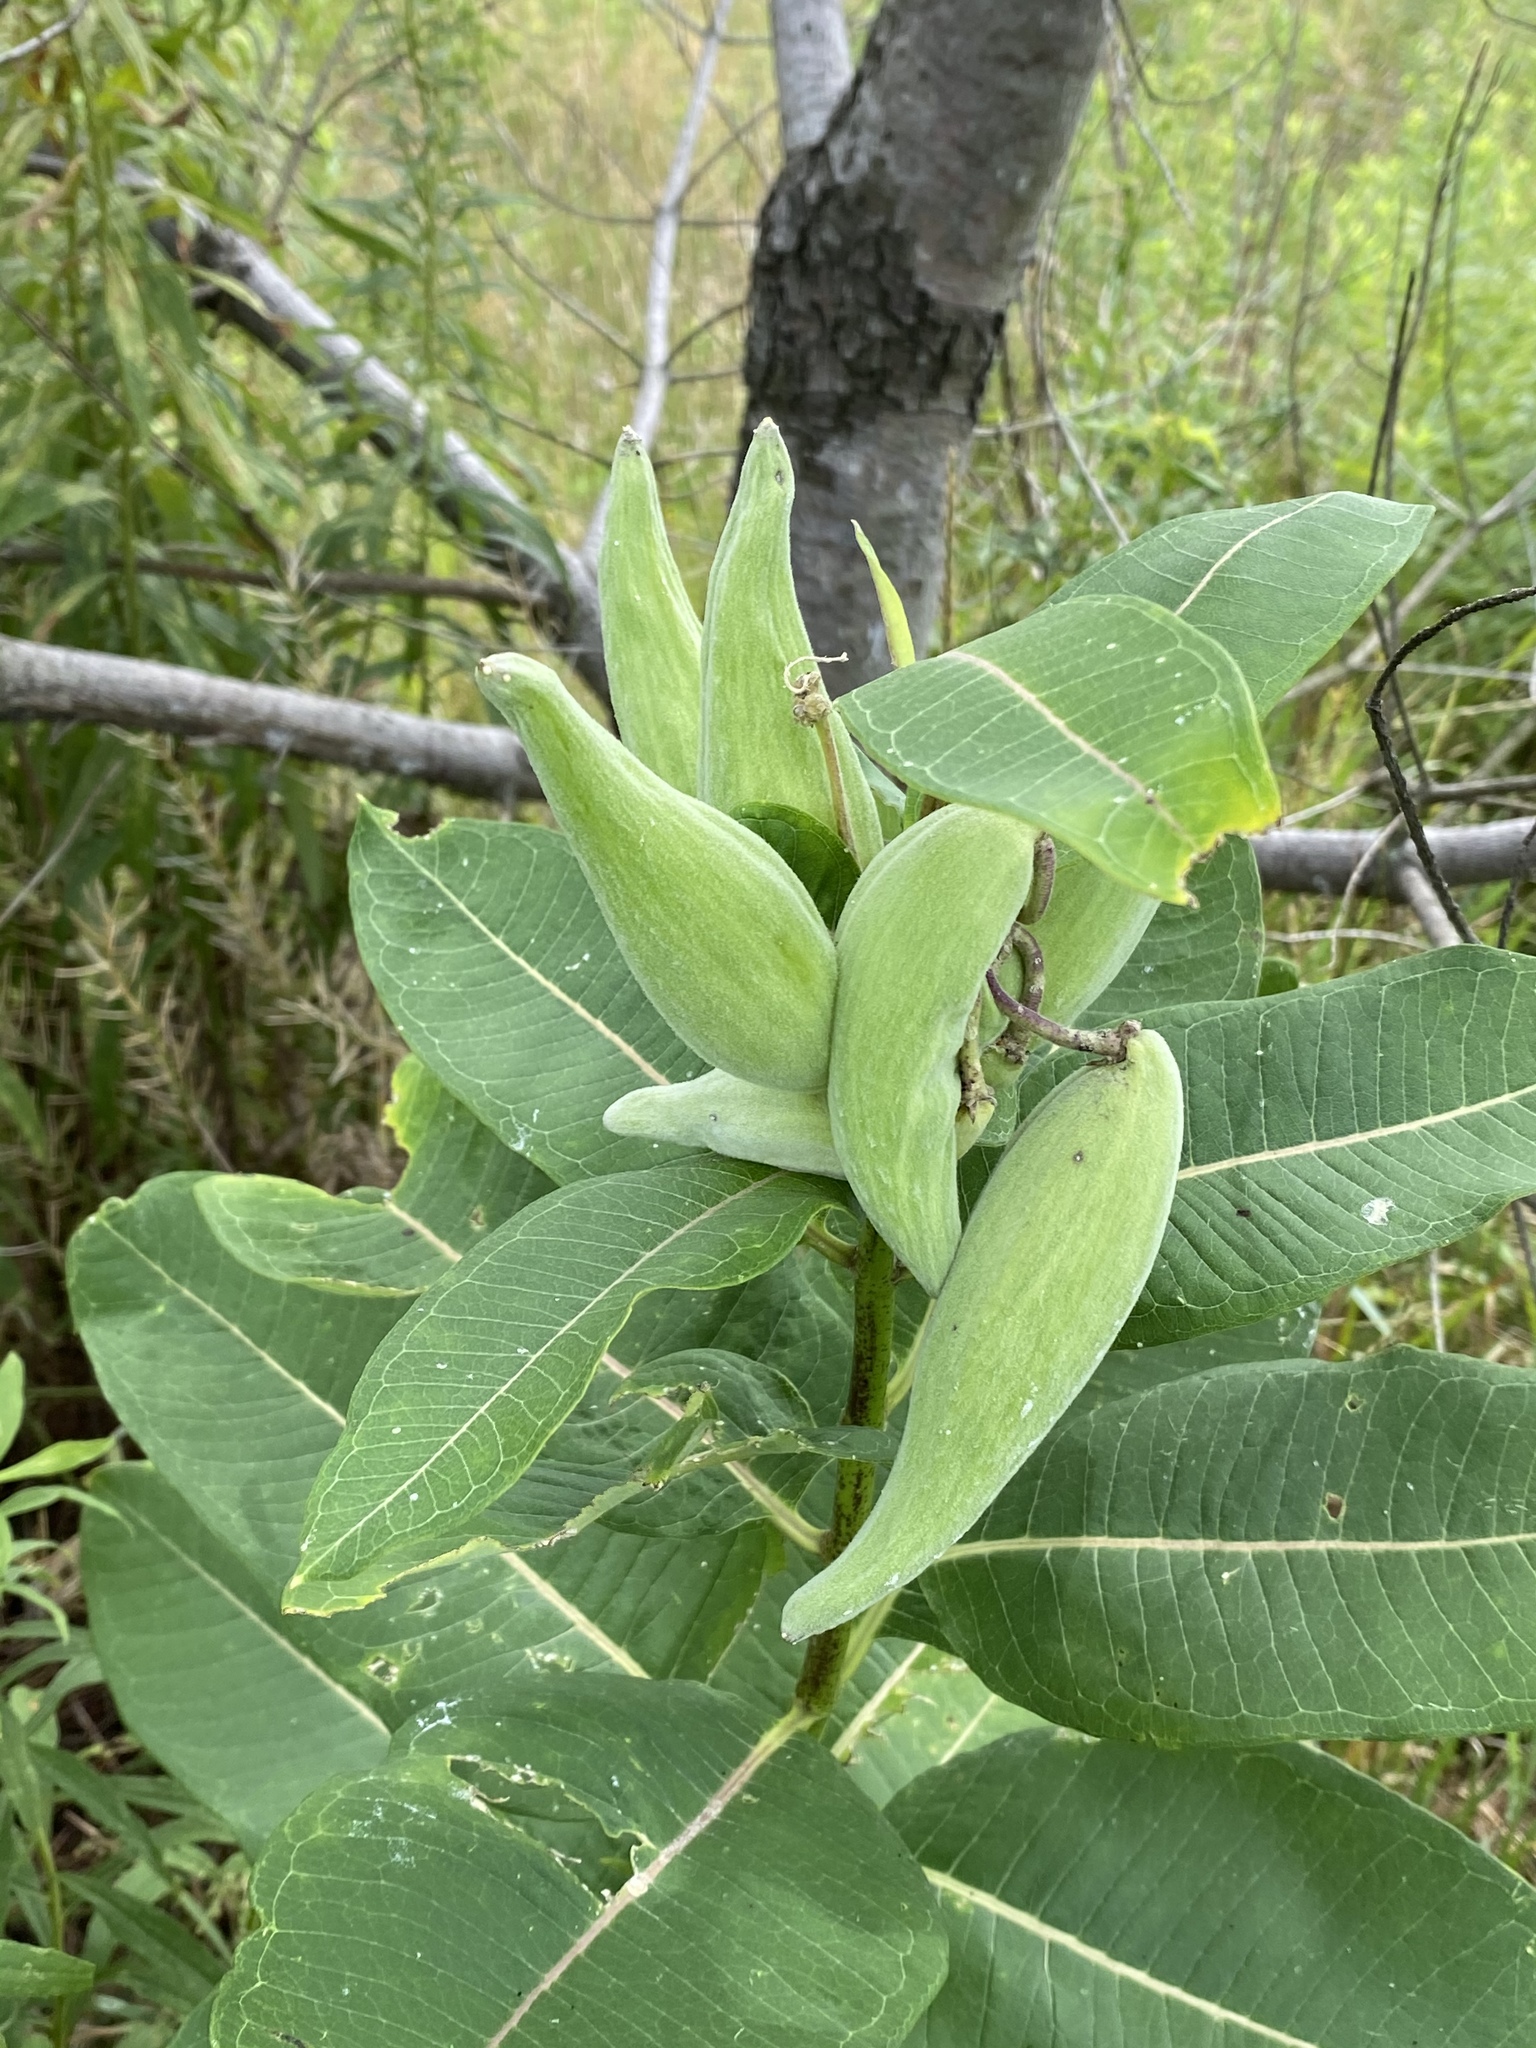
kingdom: Plantae
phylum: Tracheophyta
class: Magnoliopsida
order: Gentianales
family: Apocynaceae
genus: Asclepias
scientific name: Asclepias syriaca
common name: Common milkweed
